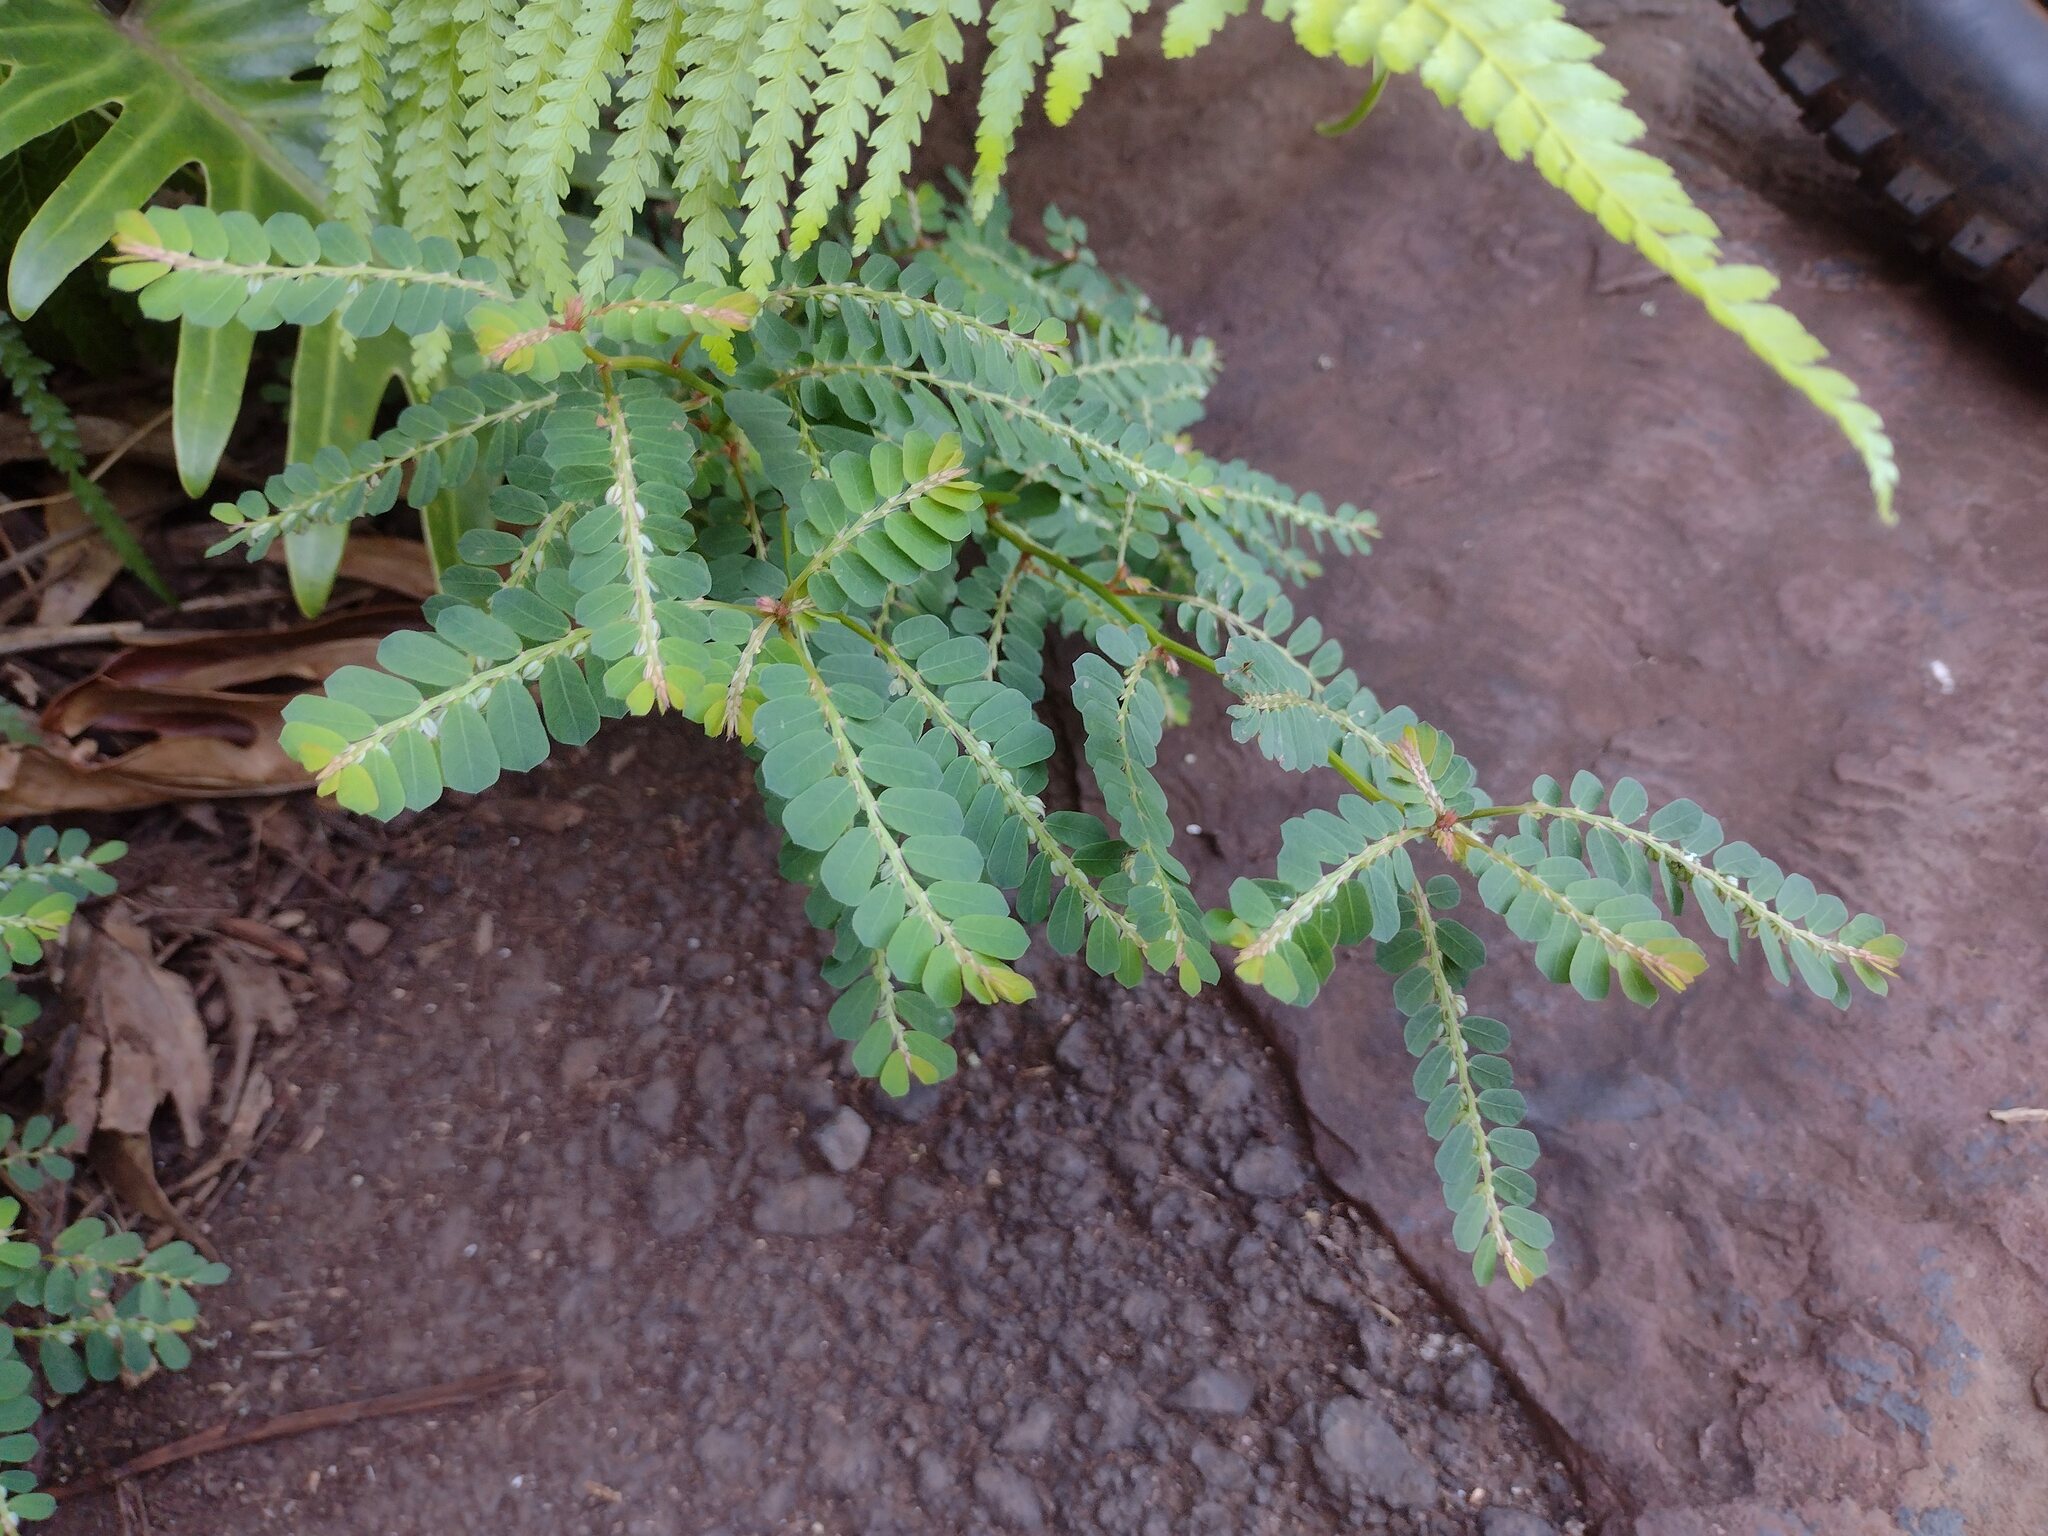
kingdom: Plantae
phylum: Tracheophyta
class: Magnoliopsida
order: Malpighiales
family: Phyllanthaceae
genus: Phyllanthus
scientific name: Phyllanthus leucanthus
